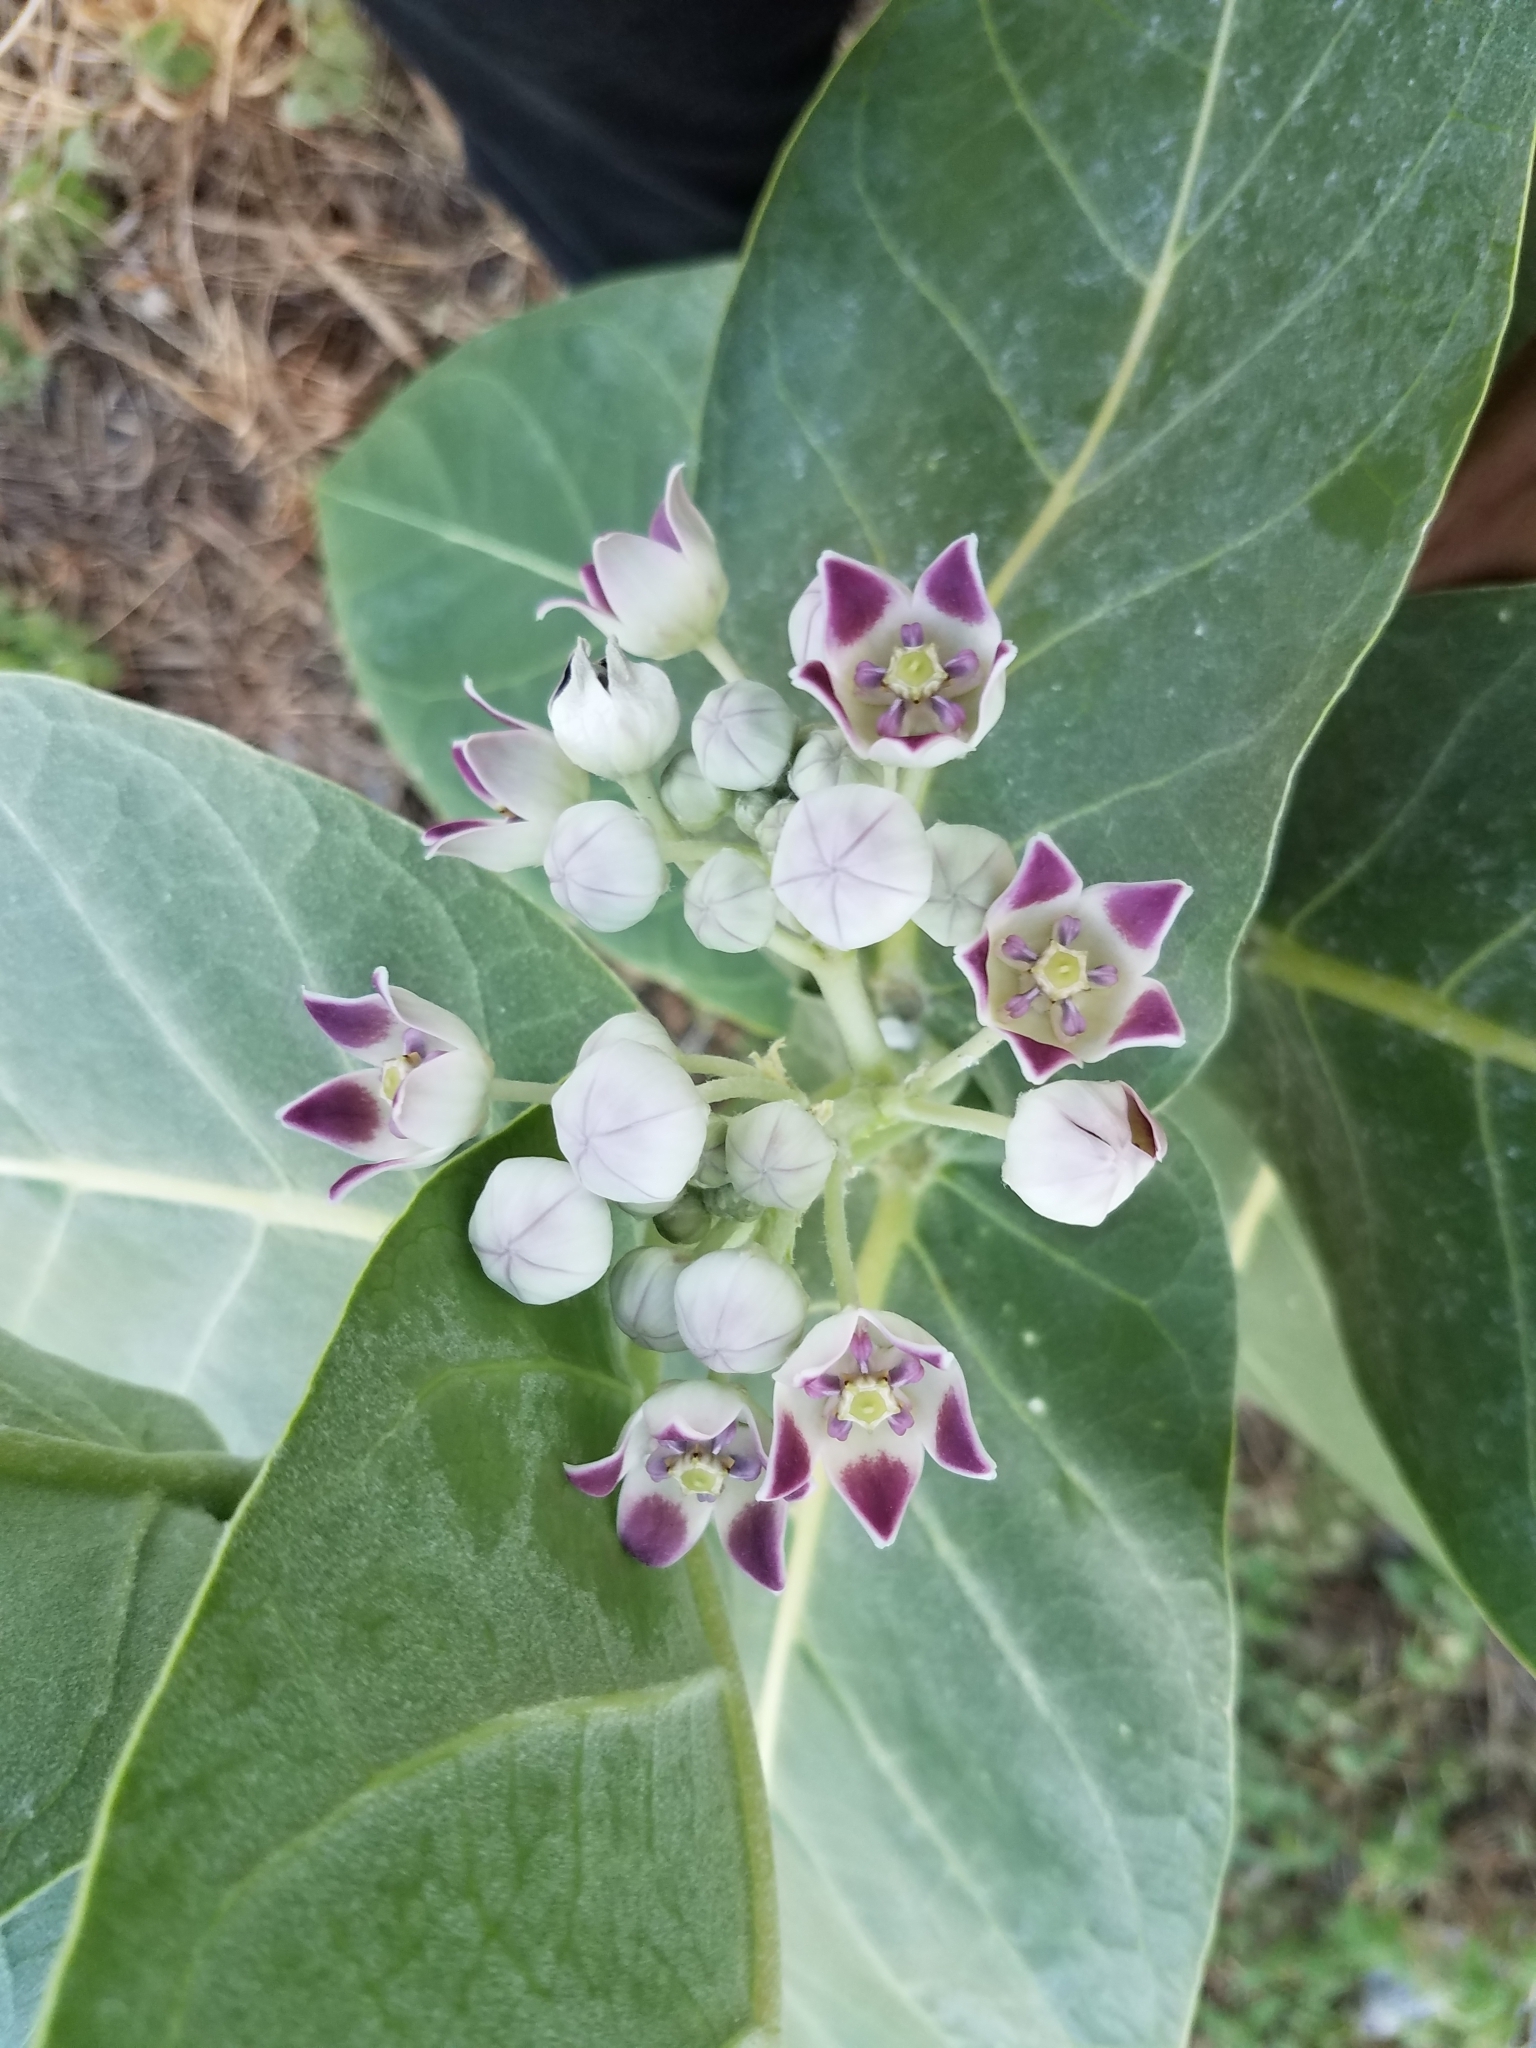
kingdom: Plantae
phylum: Tracheophyta
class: Magnoliopsida
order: Gentianales
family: Apocynaceae
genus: Calotropis
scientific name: Calotropis procera
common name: Roostertree
